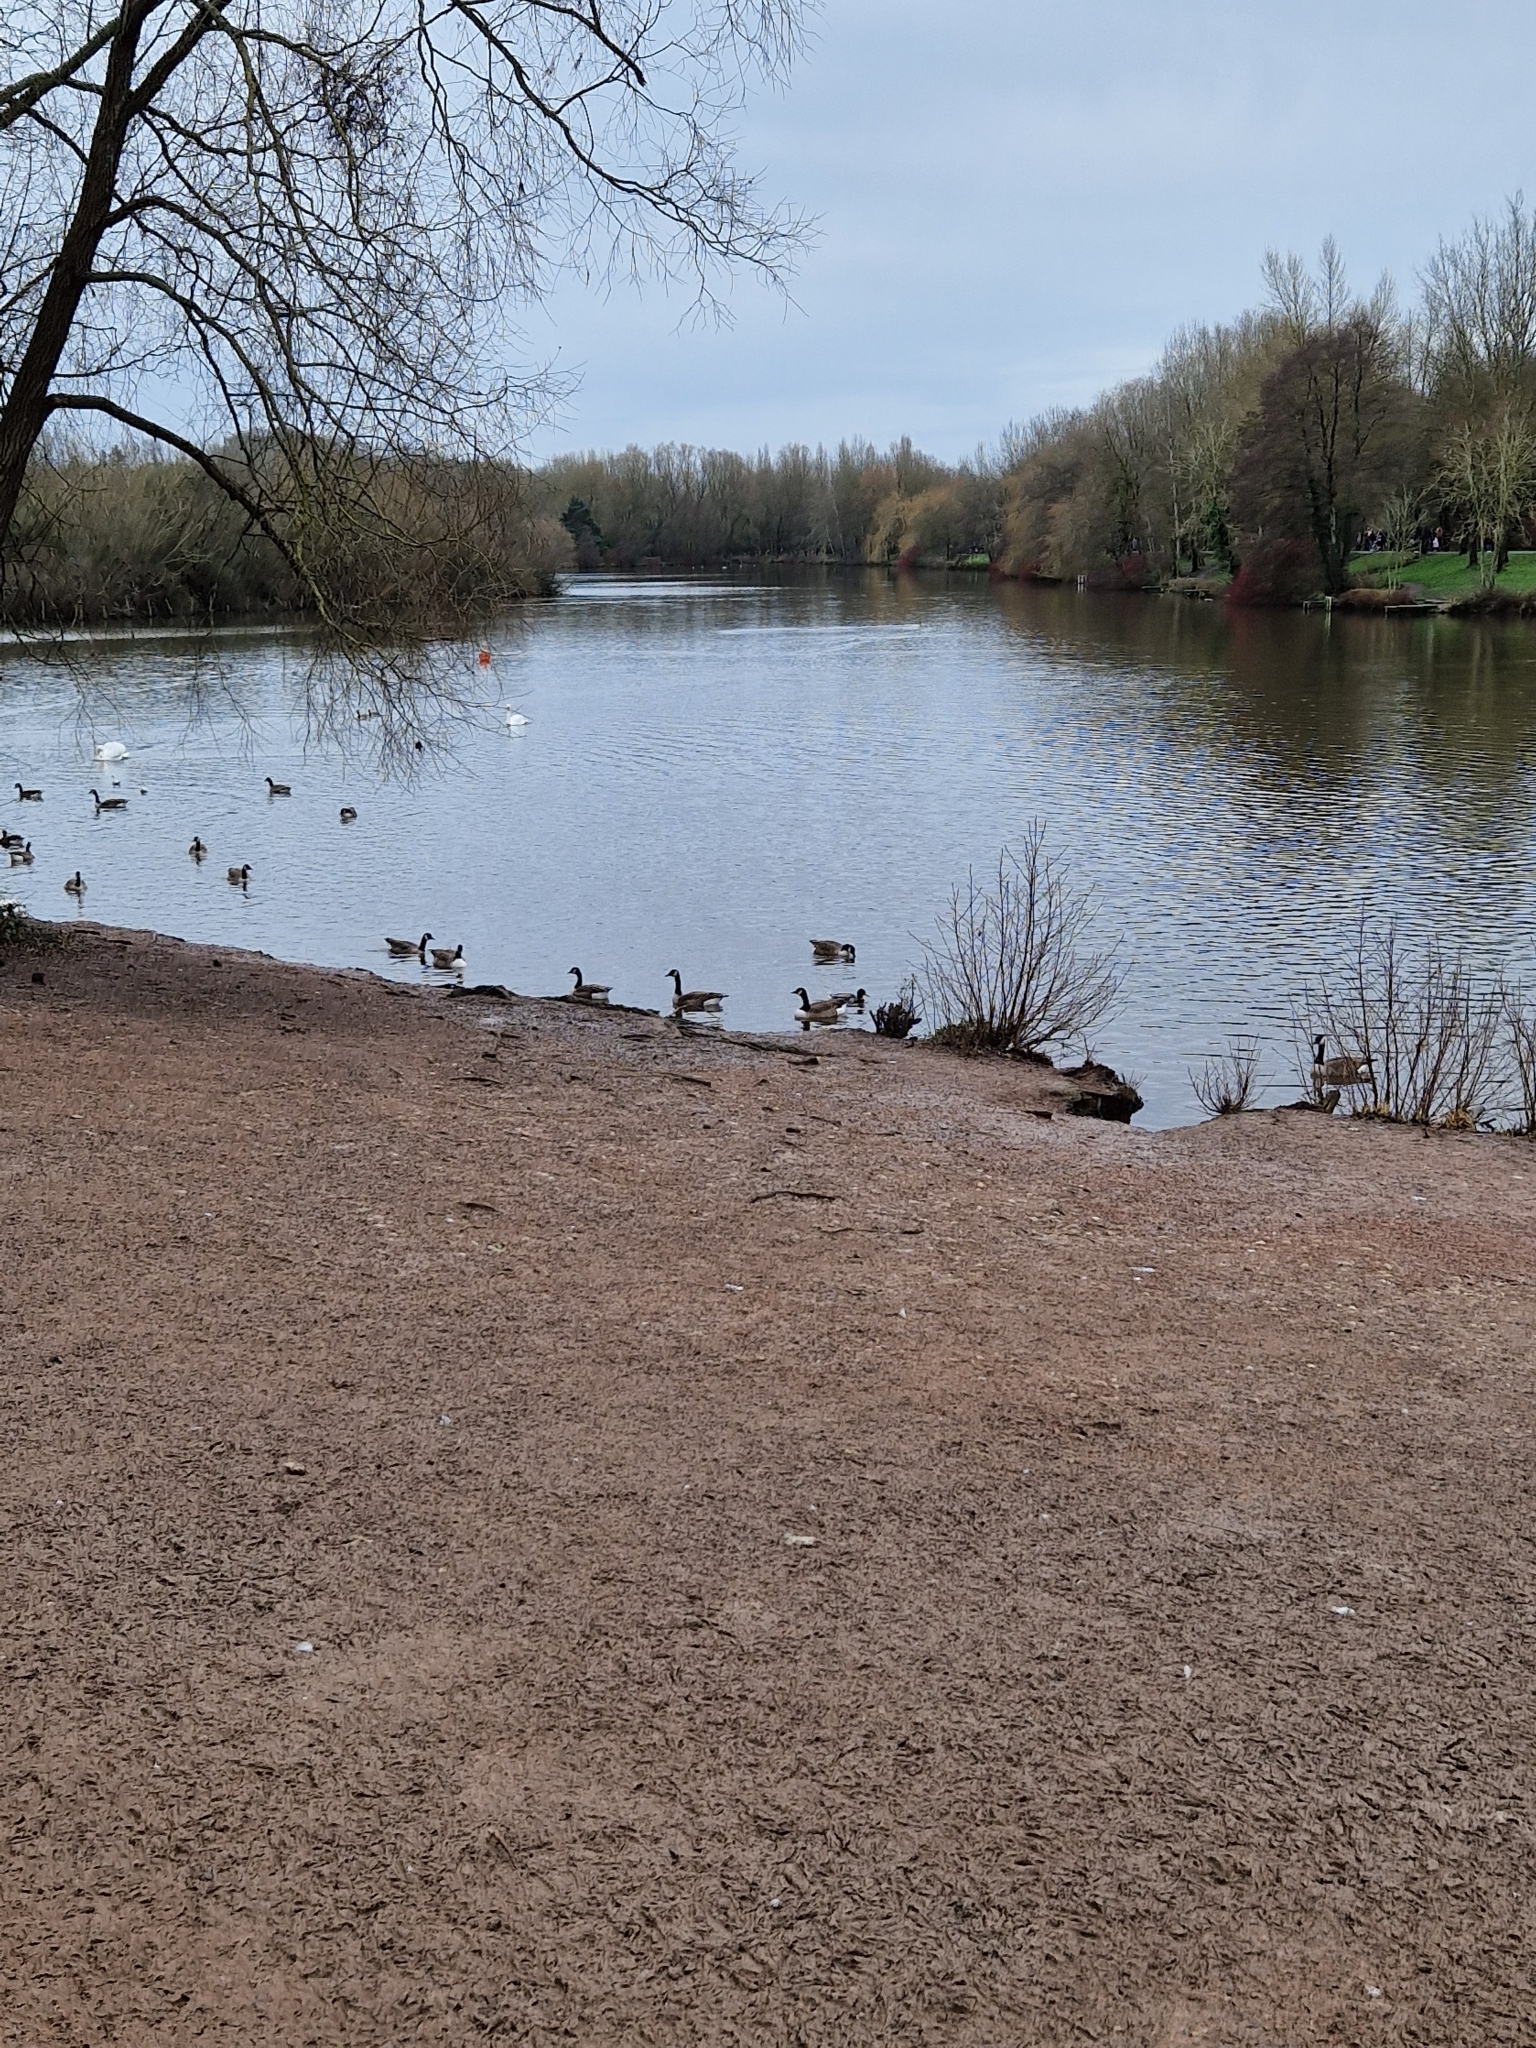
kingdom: Animalia
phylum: Chordata
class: Aves
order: Anseriformes
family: Anatidae
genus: Branta
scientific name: Branta canadensis
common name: Canada goose
